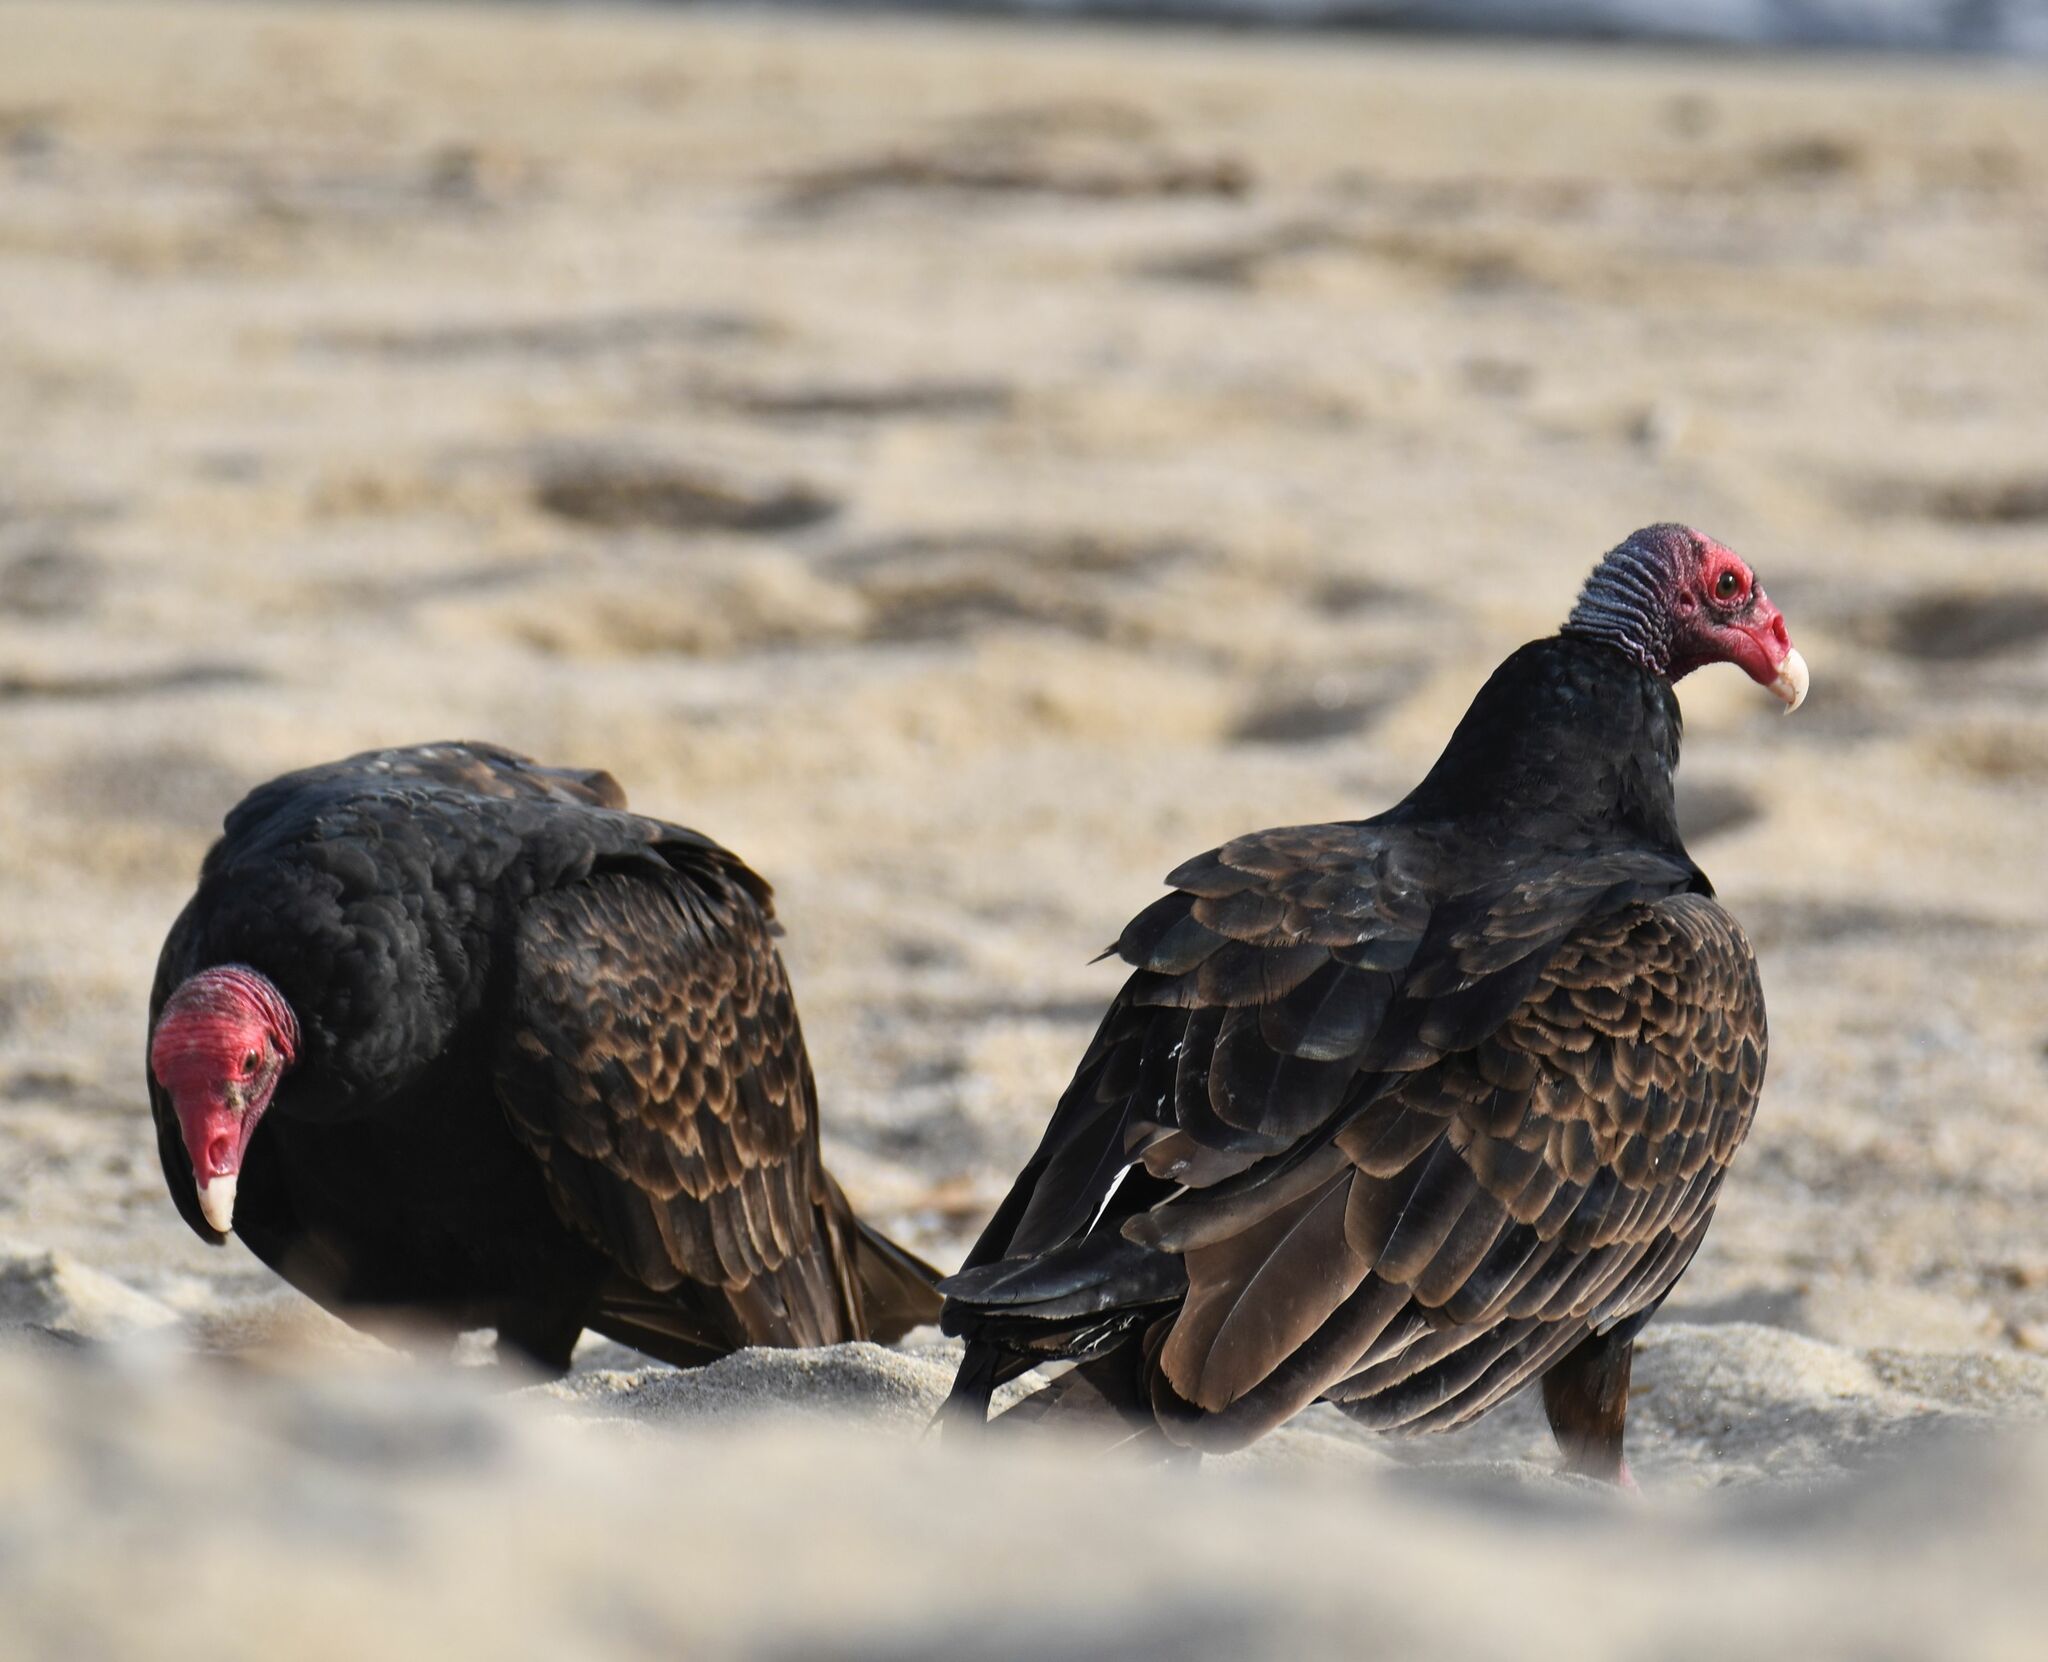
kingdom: Animalia
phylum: Chordata
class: Aves
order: Accipitriformes
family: Cathartidae
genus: Cathartes
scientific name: Cathartes aura
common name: Turkey vulture
